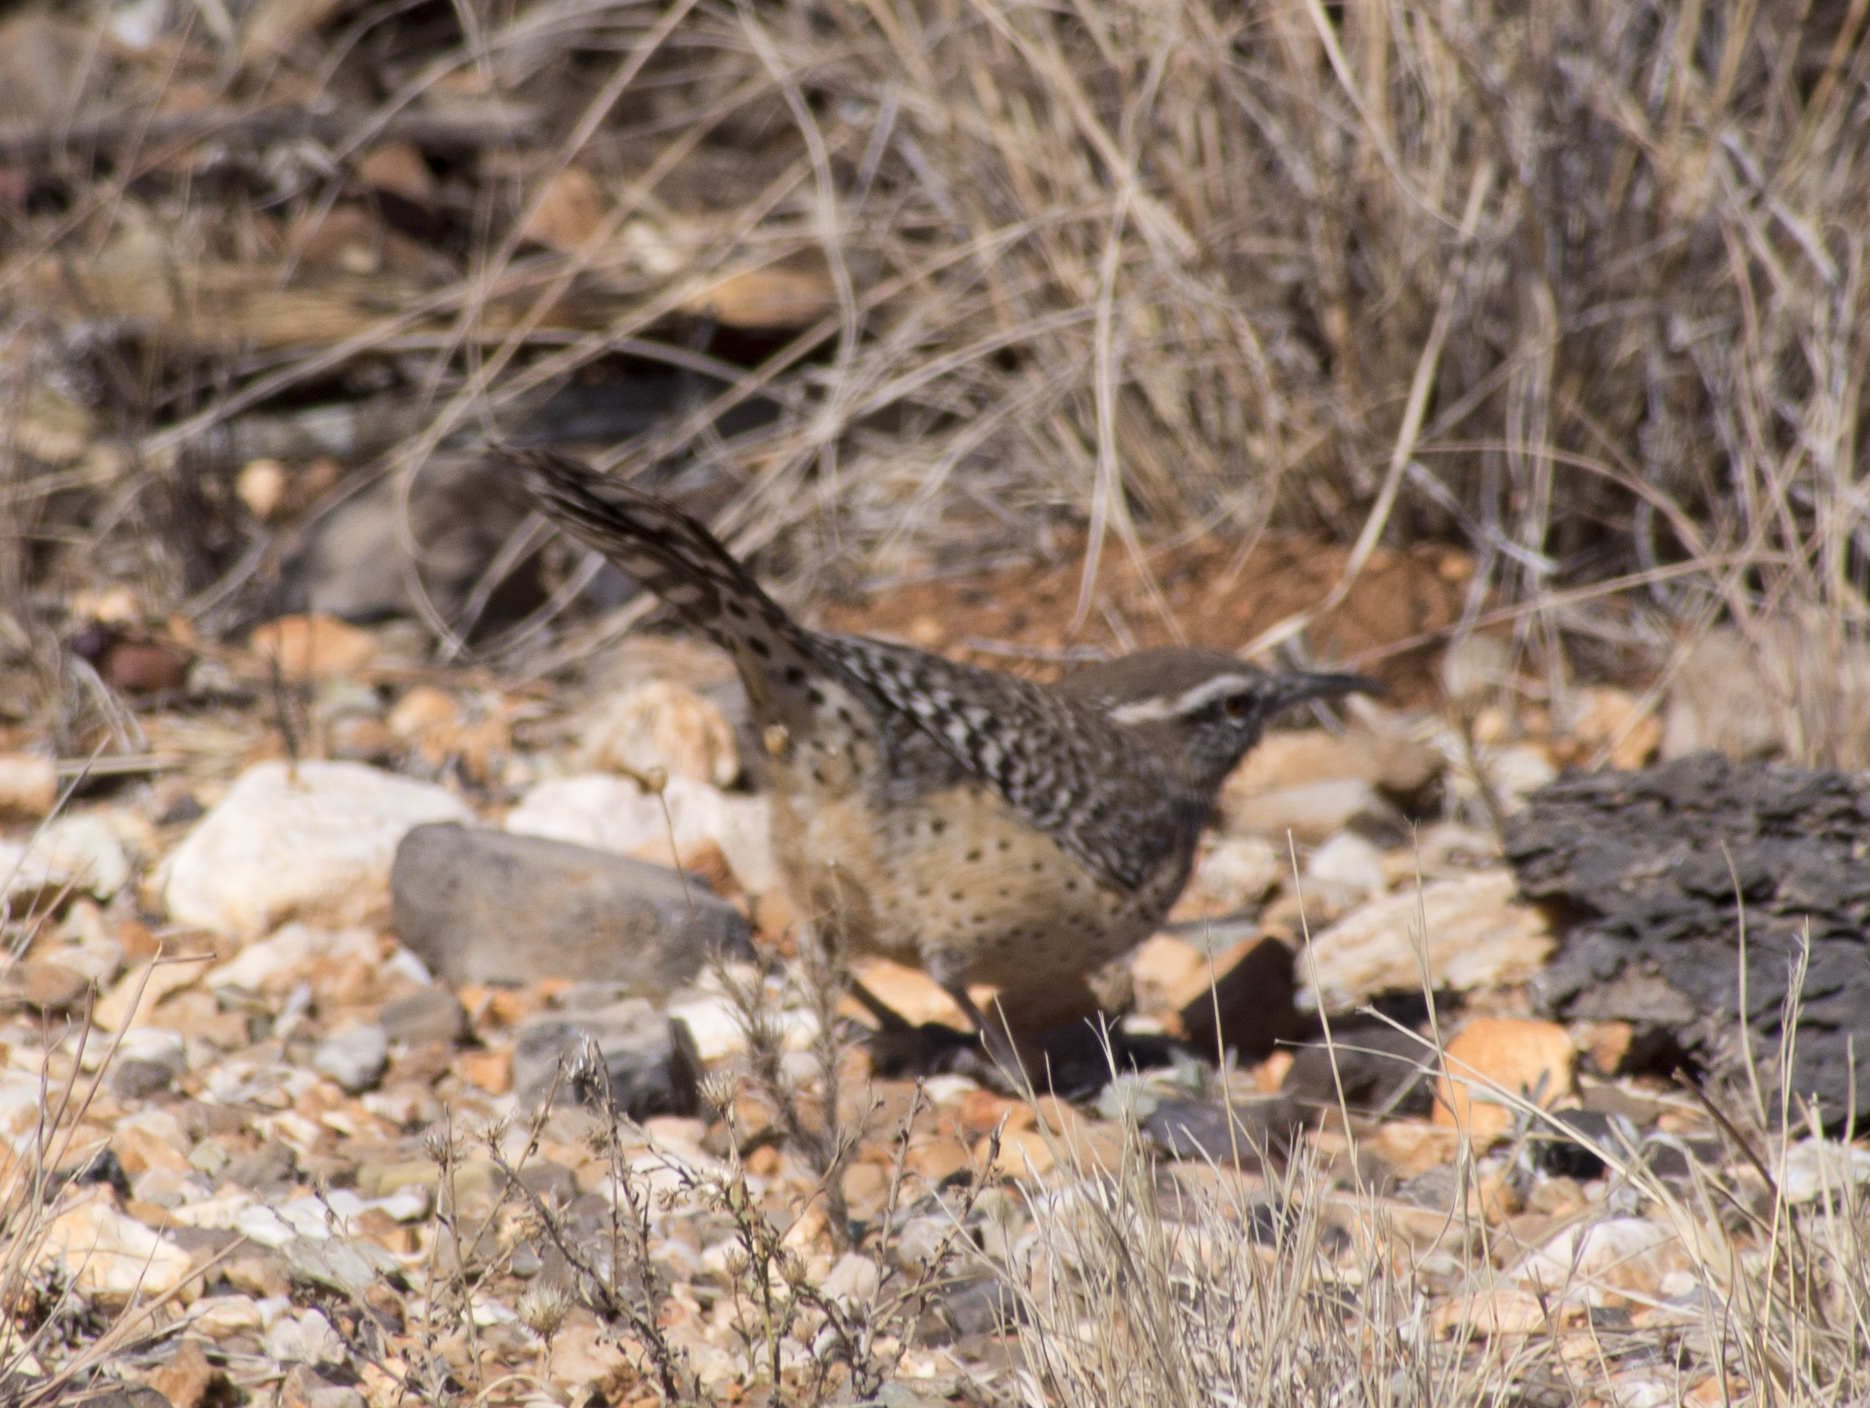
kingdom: Animalia
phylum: Chordata
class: Aves
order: Passeriformes
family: Troglodytidae
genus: Campylorhynchus
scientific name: Campylorhynchus brunneicapillus
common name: Cactus wren
